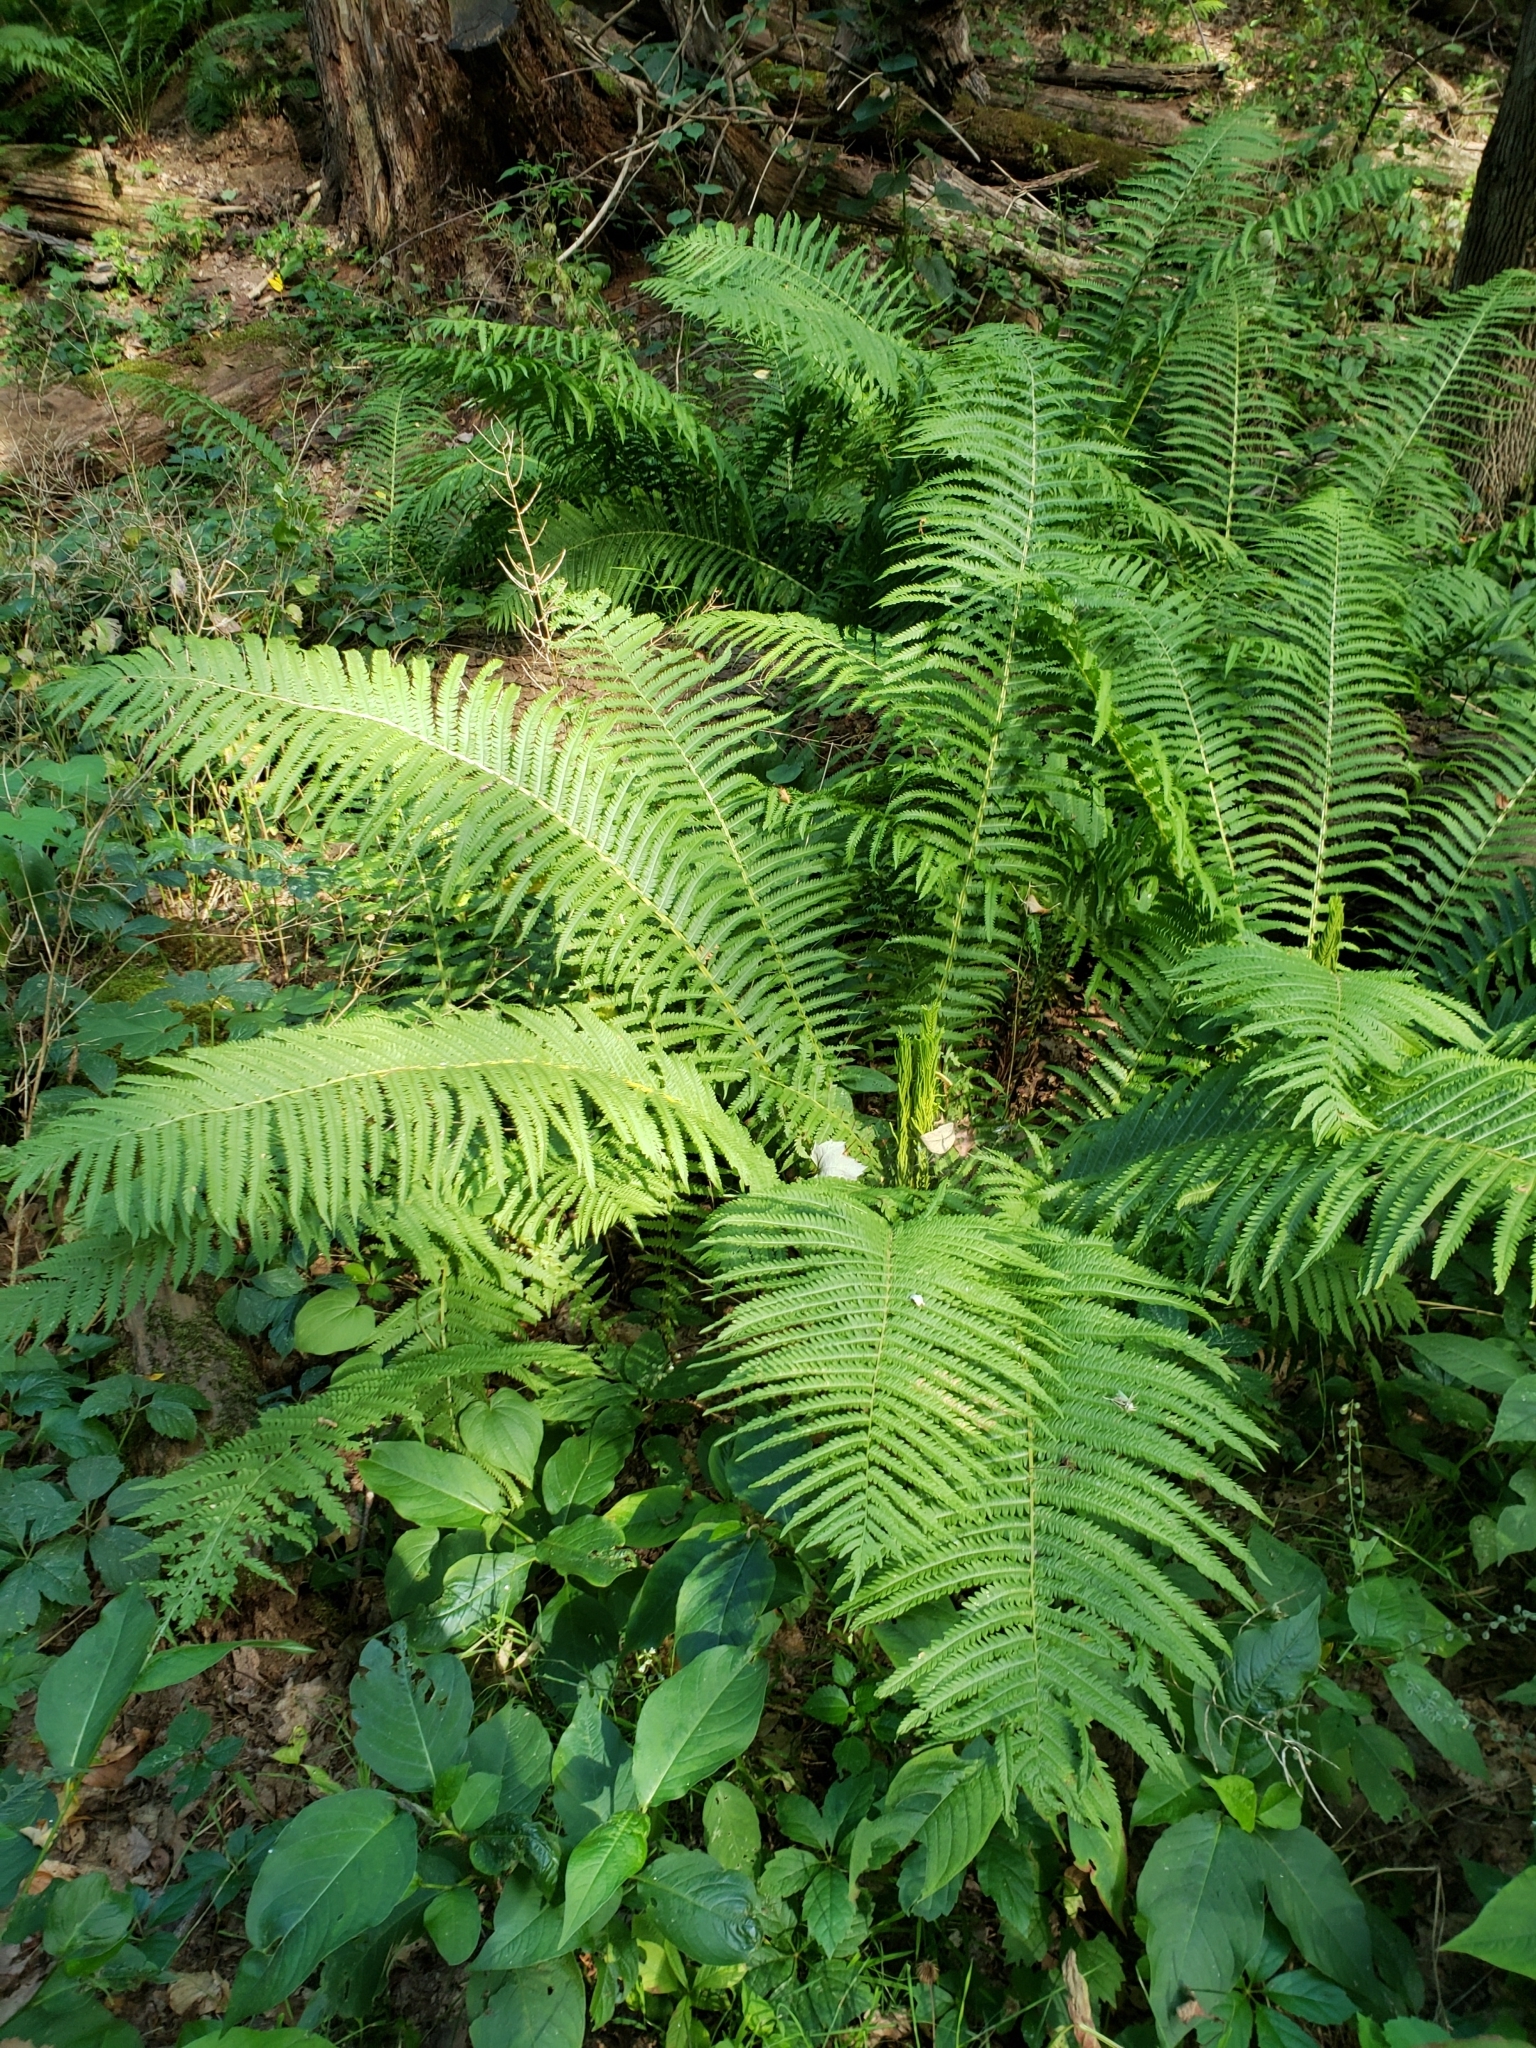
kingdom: Plantae
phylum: Tracheophyta
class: Polypodiopsida
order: Polypodiales
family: Onocleaceae
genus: Matteuccia
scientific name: Matteuccia struthiopteris
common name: Ostrich fern
